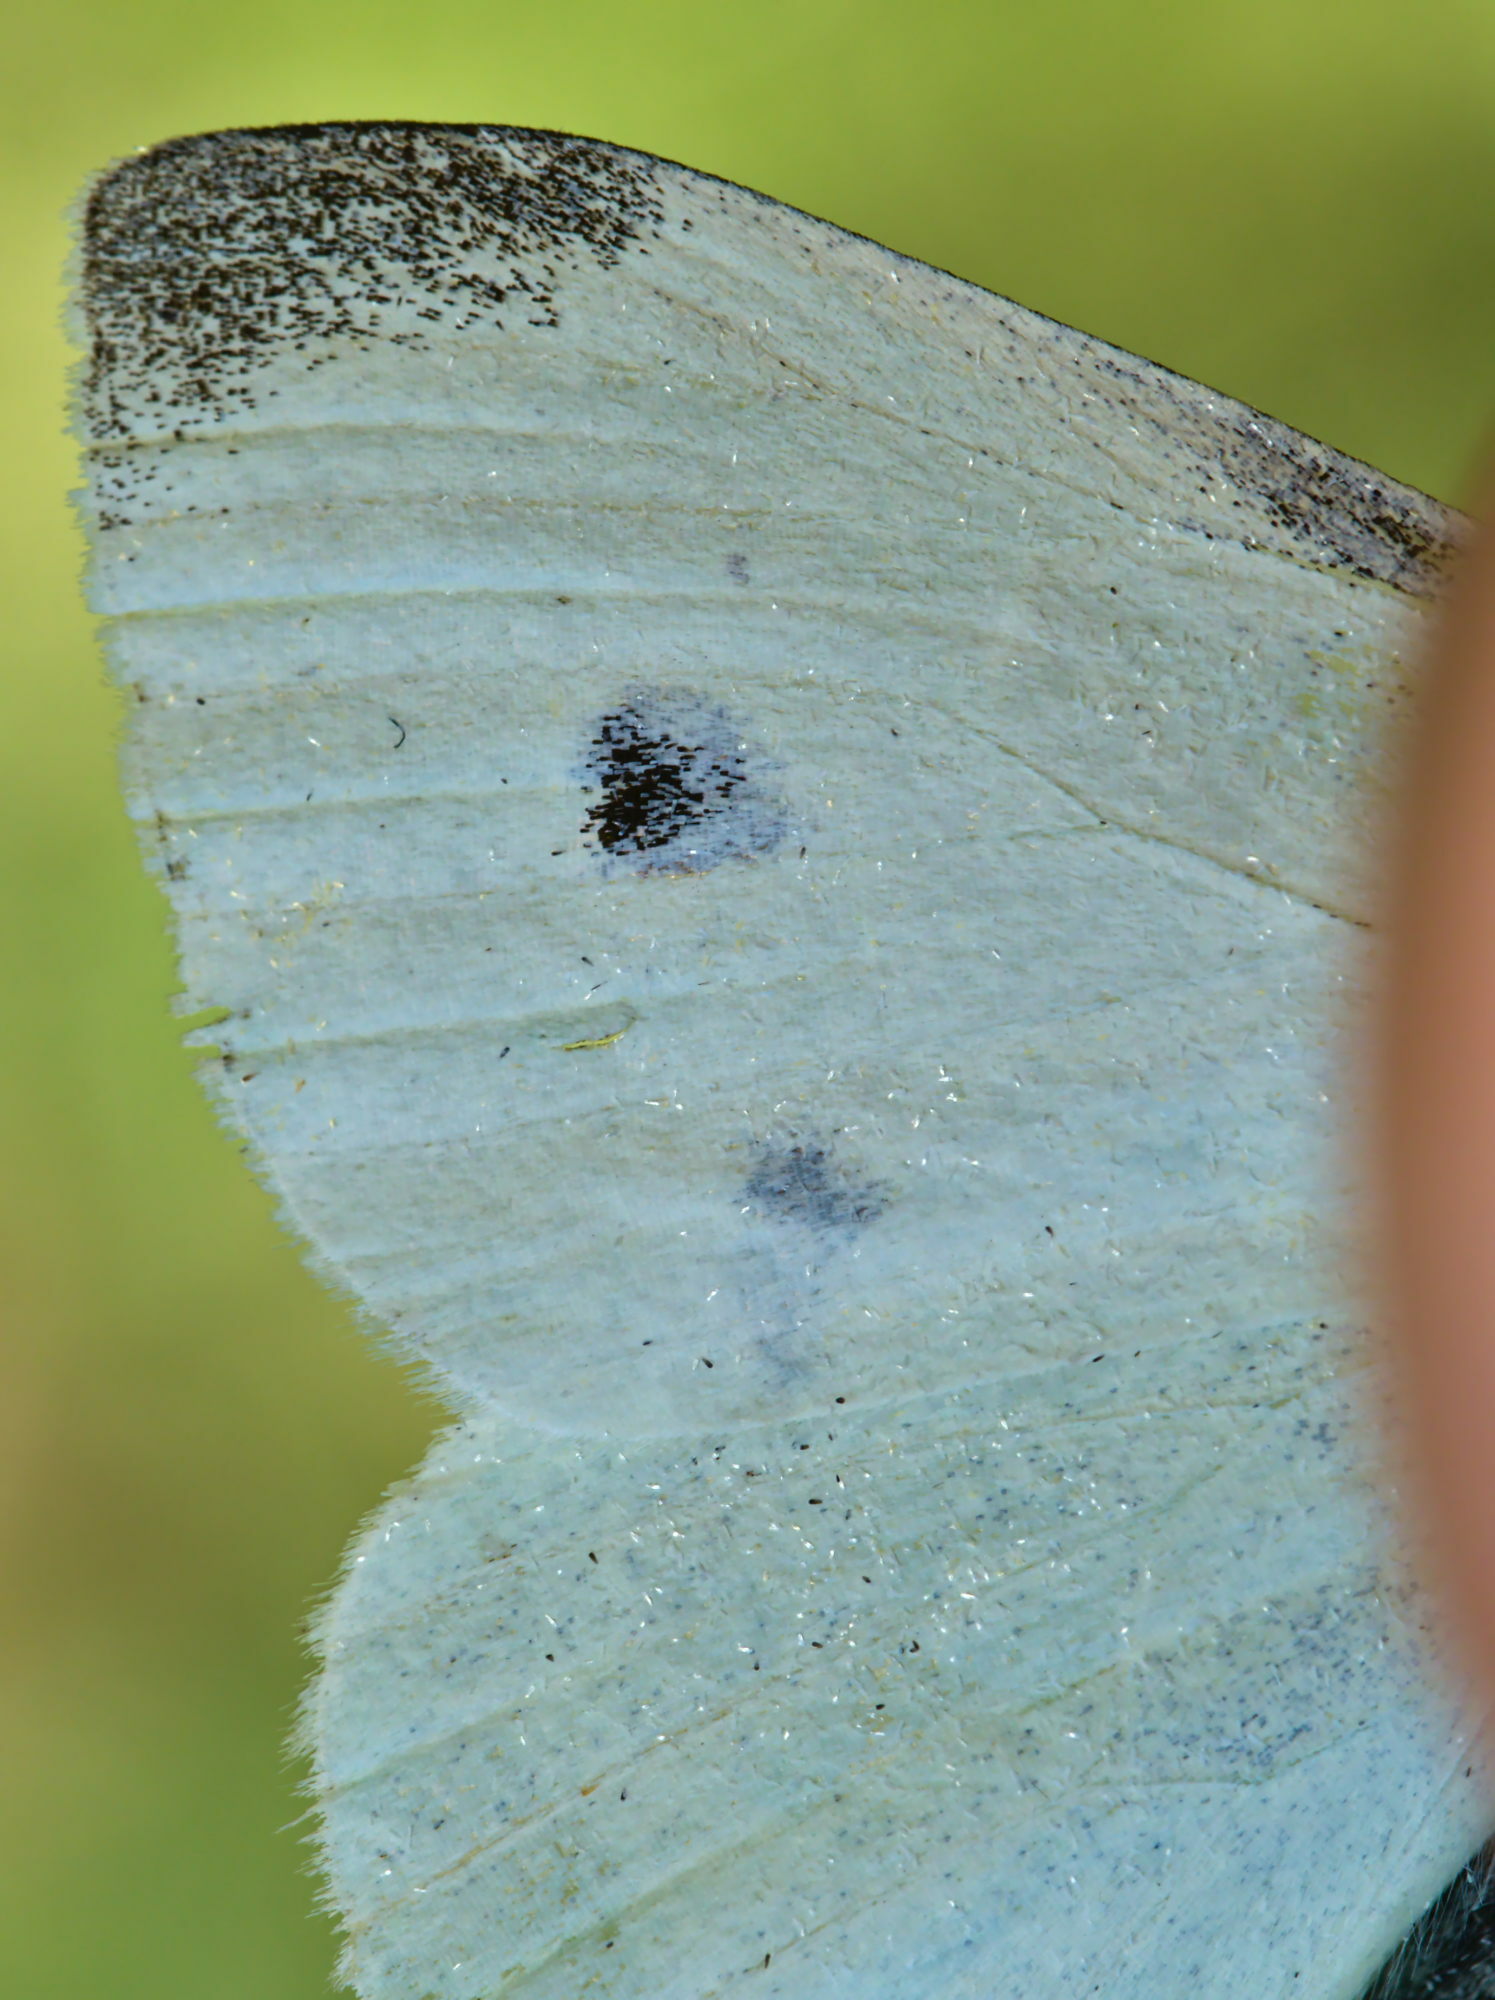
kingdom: Animalia
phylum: Arthropoda
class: Insecta
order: Lepidoptera
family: Pieridae
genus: Pieris
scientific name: Pieris rapae
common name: Small white
